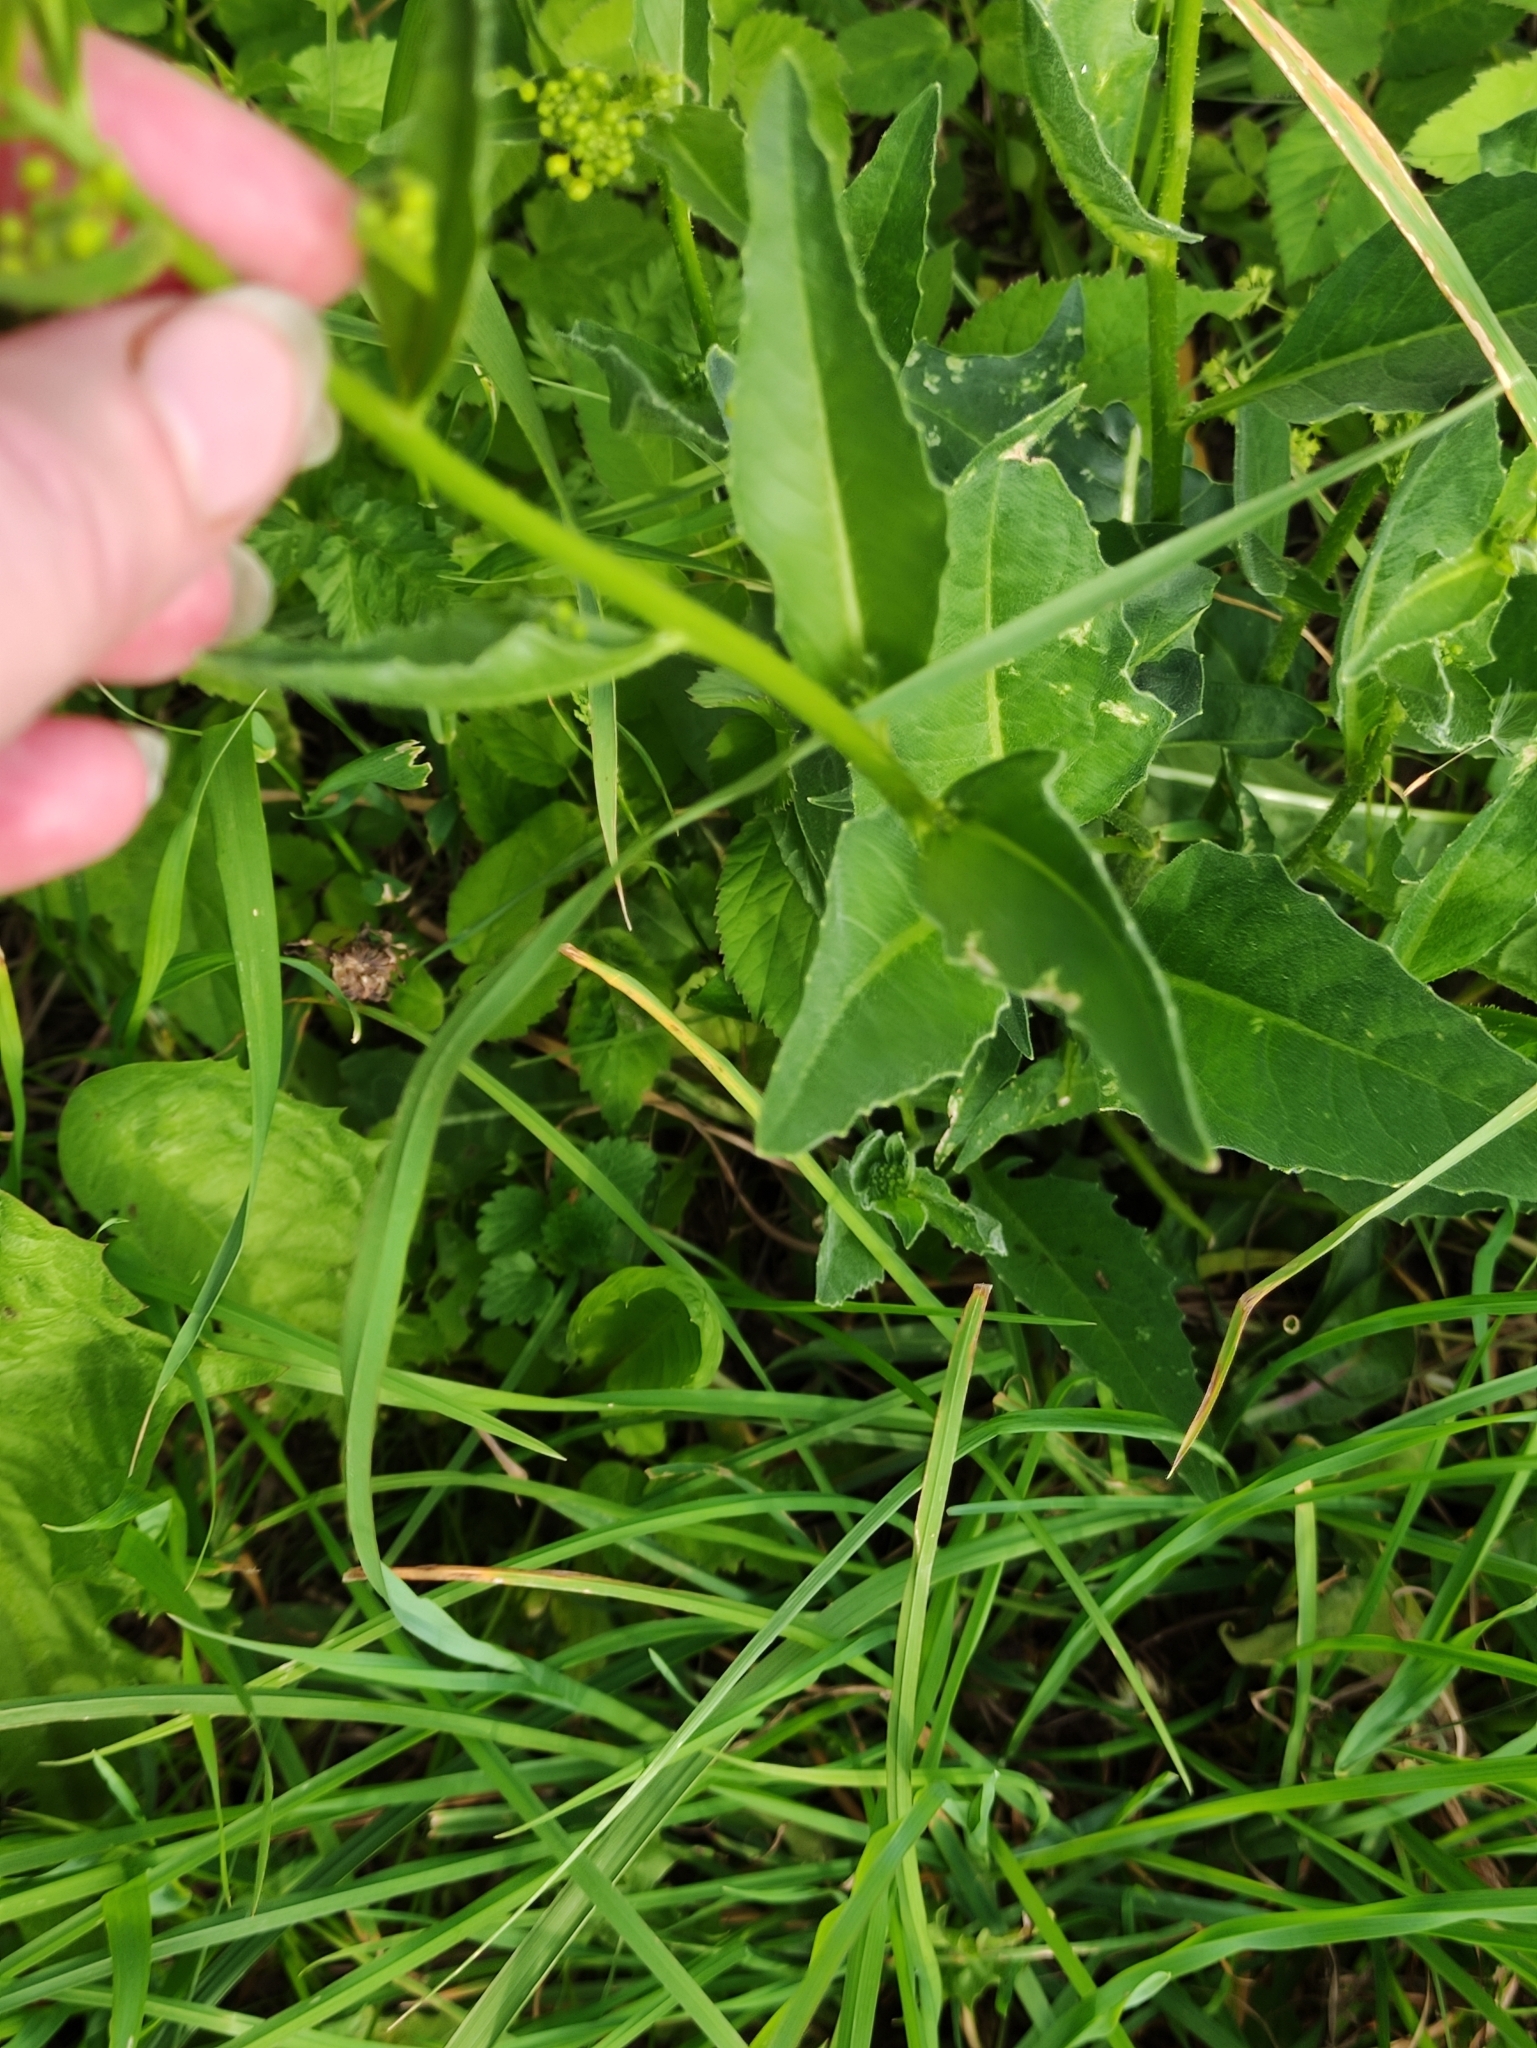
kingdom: Plantae
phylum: Tracheophyta
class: Magnoliopsida
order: Brassicales
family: Brassicaceae
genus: Bunias
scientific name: Bunias orientalis
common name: Warty-cabbage
